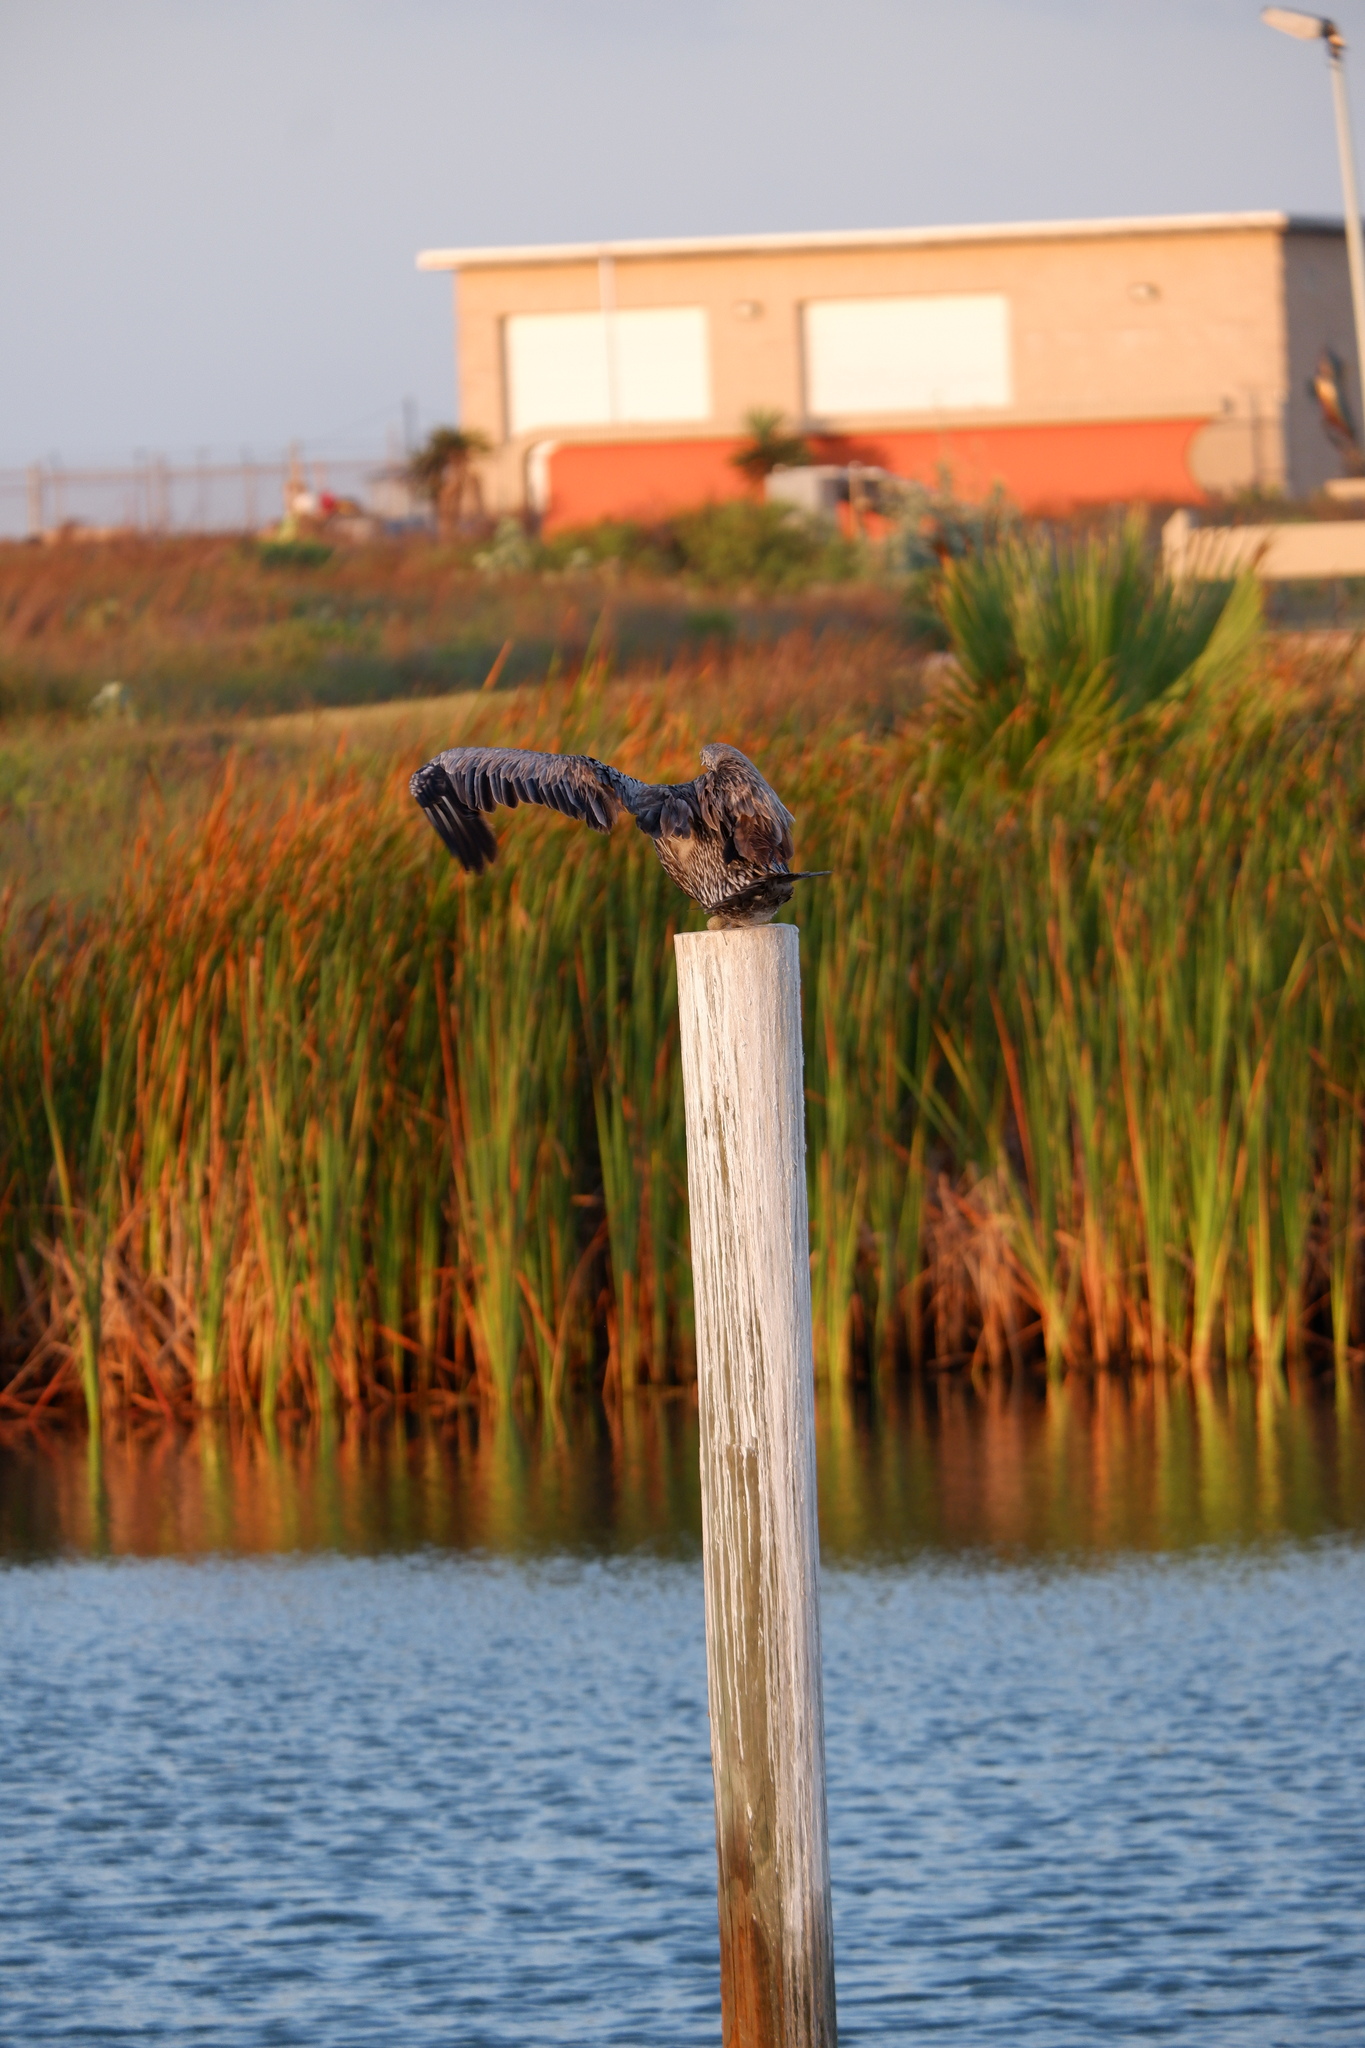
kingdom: Animalia
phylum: Chordata
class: Aves
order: Pelecaniformes
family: Pelecanidae
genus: Pelecanus
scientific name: Pelecanus occidentalis
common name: Brown pelican
